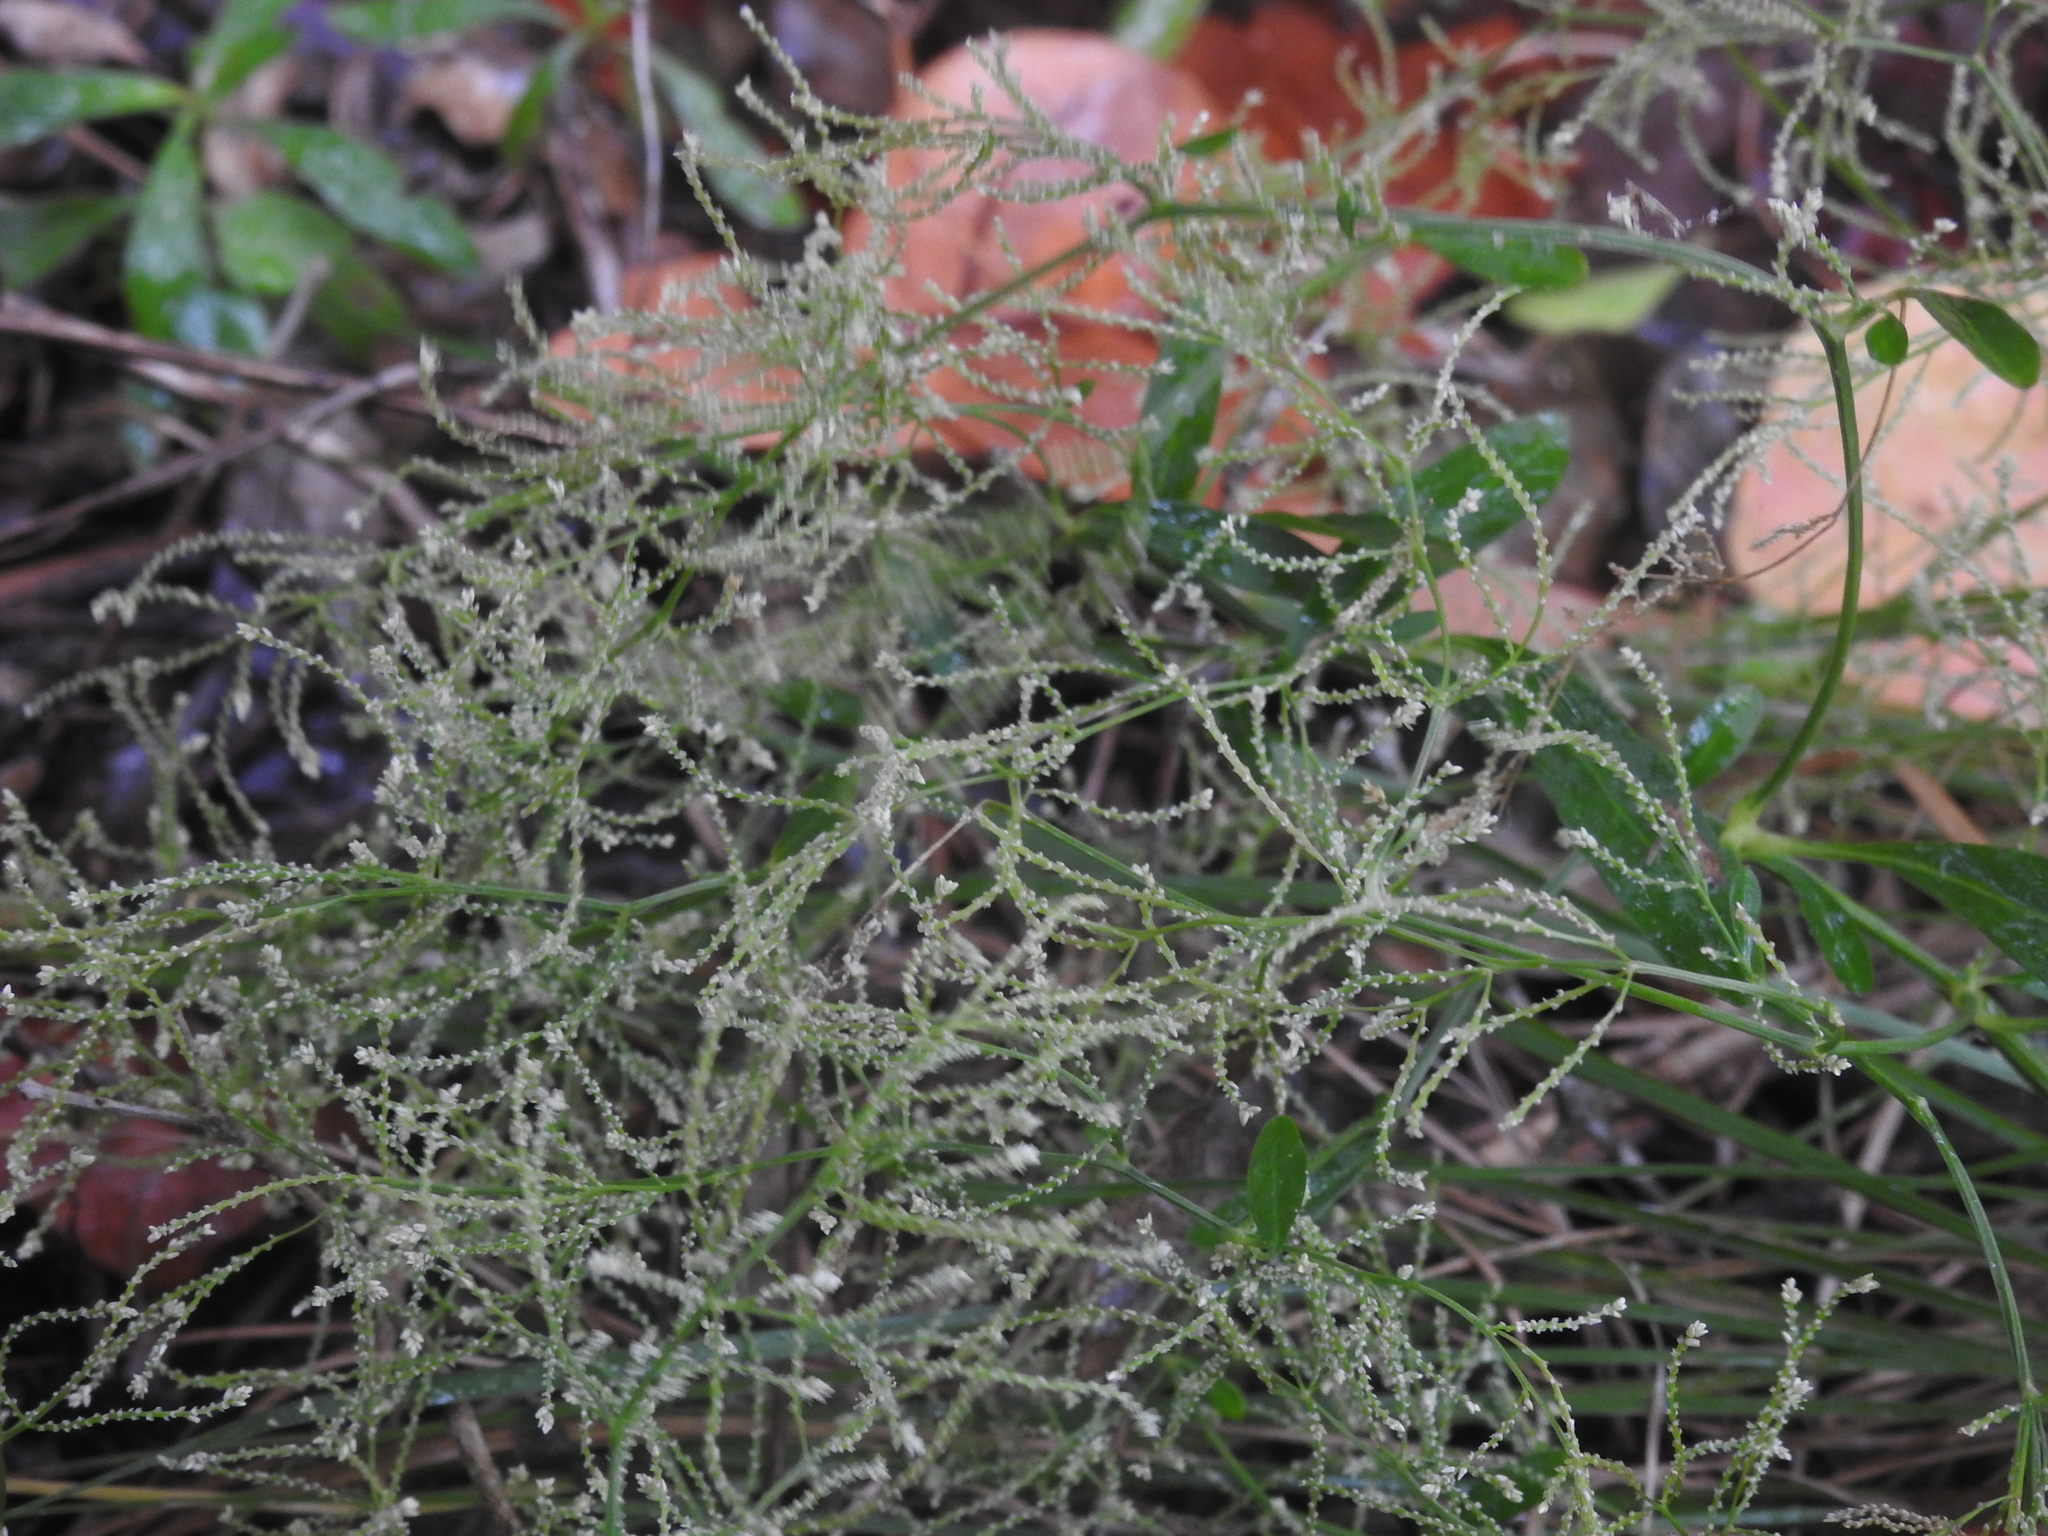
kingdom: Plantae
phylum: Tracheophyta
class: Magnoliopsida
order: Caryophyllales
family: Amaranthaceae
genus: Iresine
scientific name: Iresine diffusa
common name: Juba's-bush
